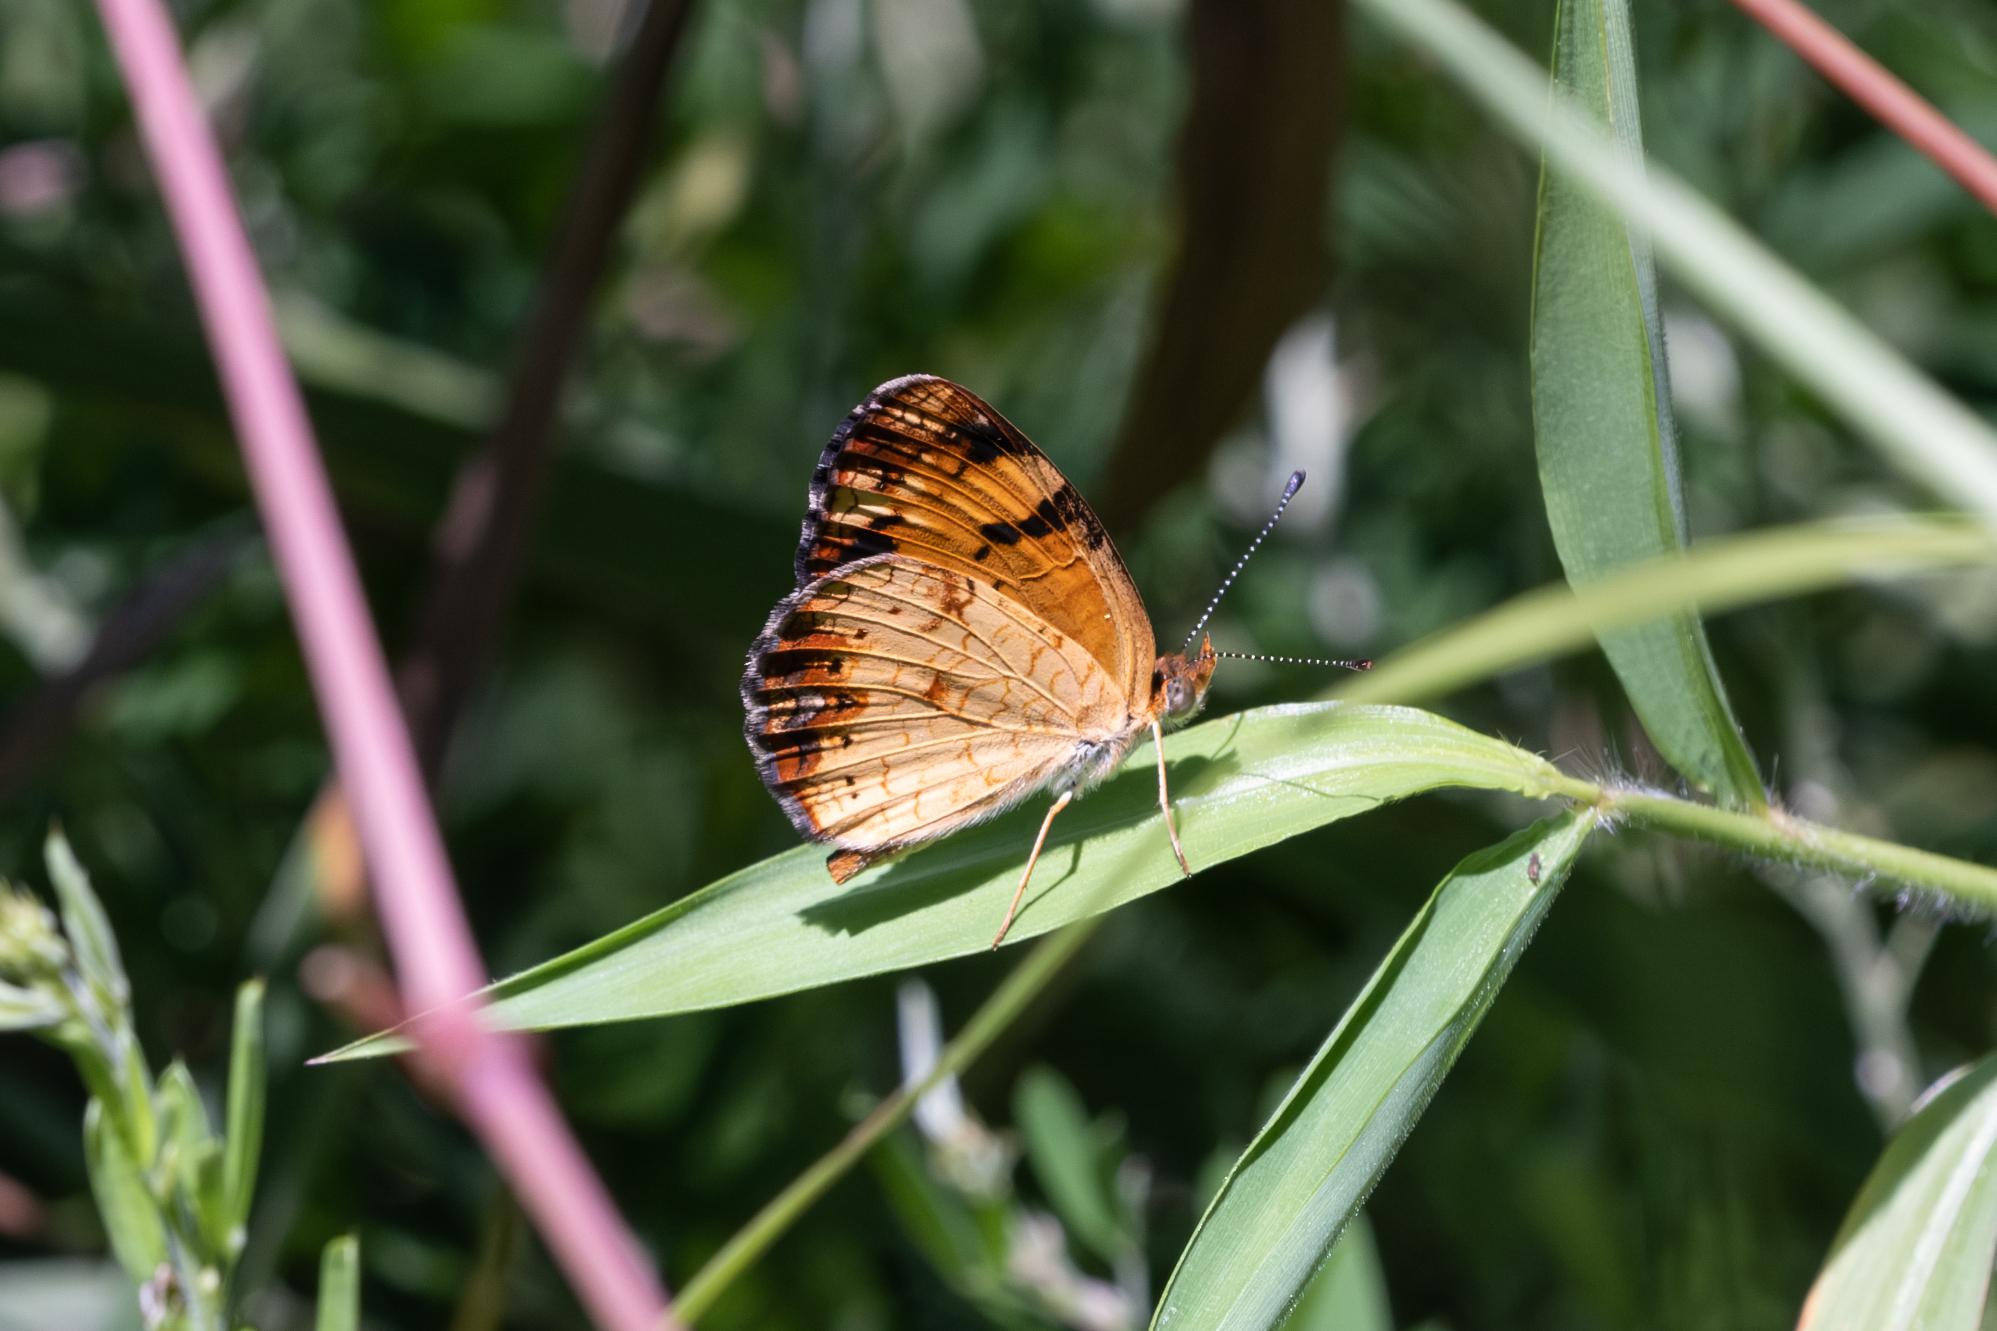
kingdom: Animalia
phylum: Arthropoda
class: Insecta
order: Lepidoptera
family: Nymphalidae
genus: Phyciodes
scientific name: Phyciodes tharos
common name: Pearl crescent
